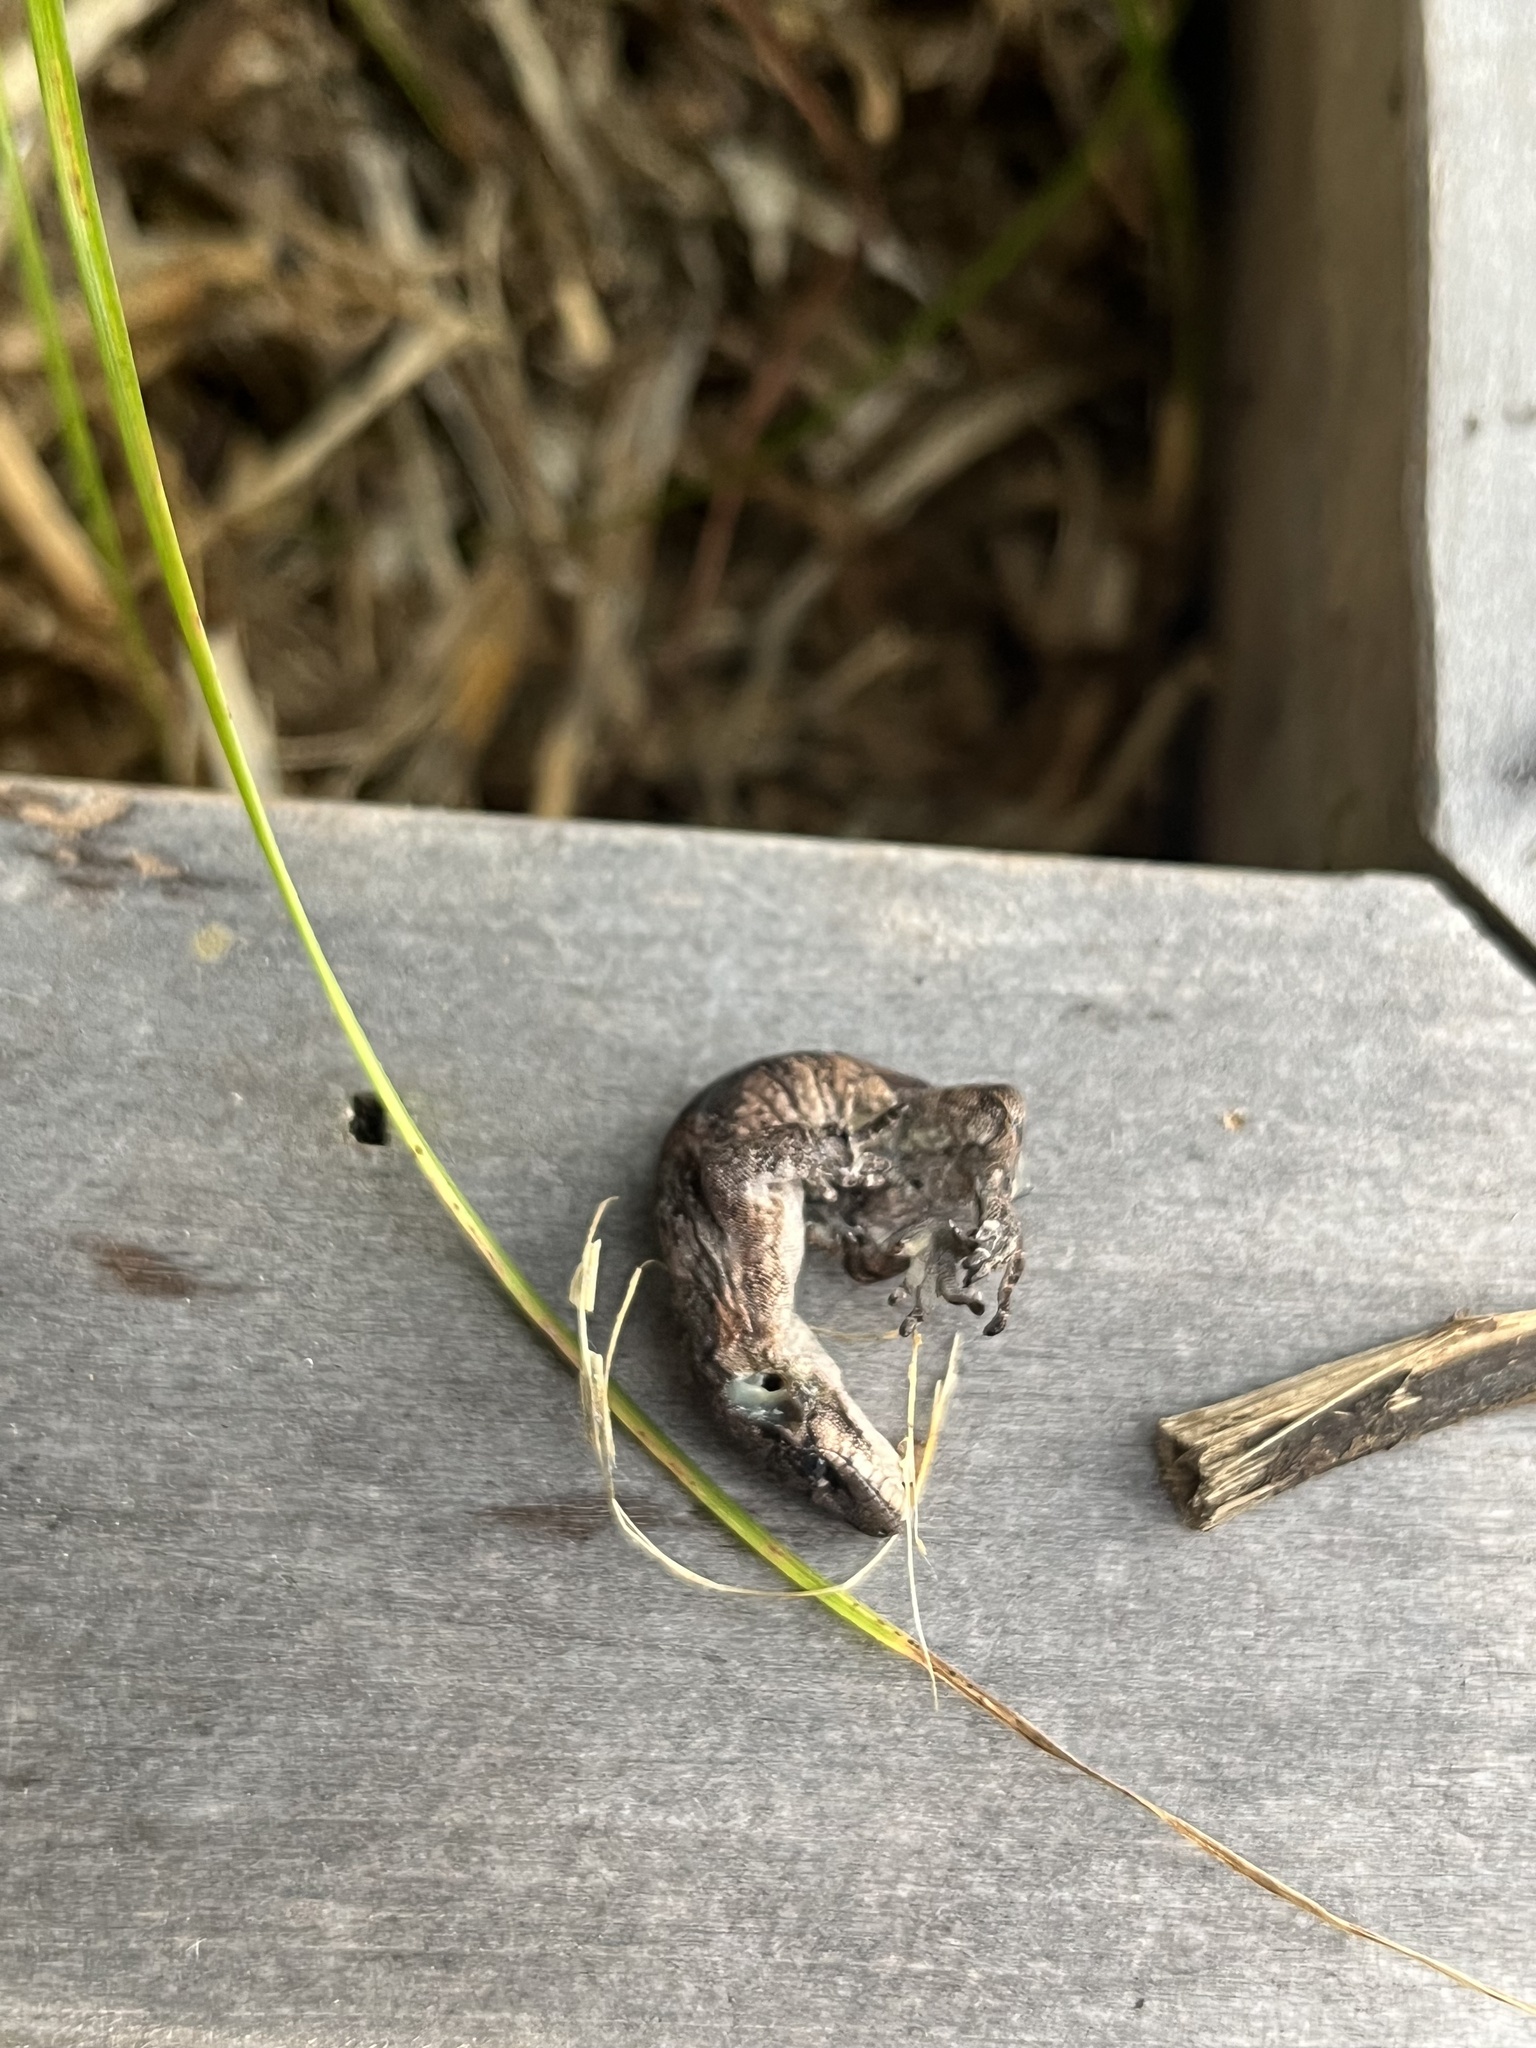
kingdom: Animalia
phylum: Chordata
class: Squamata
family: Diplodactylidae
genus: Mokopirirakau
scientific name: Mokopirirakau
